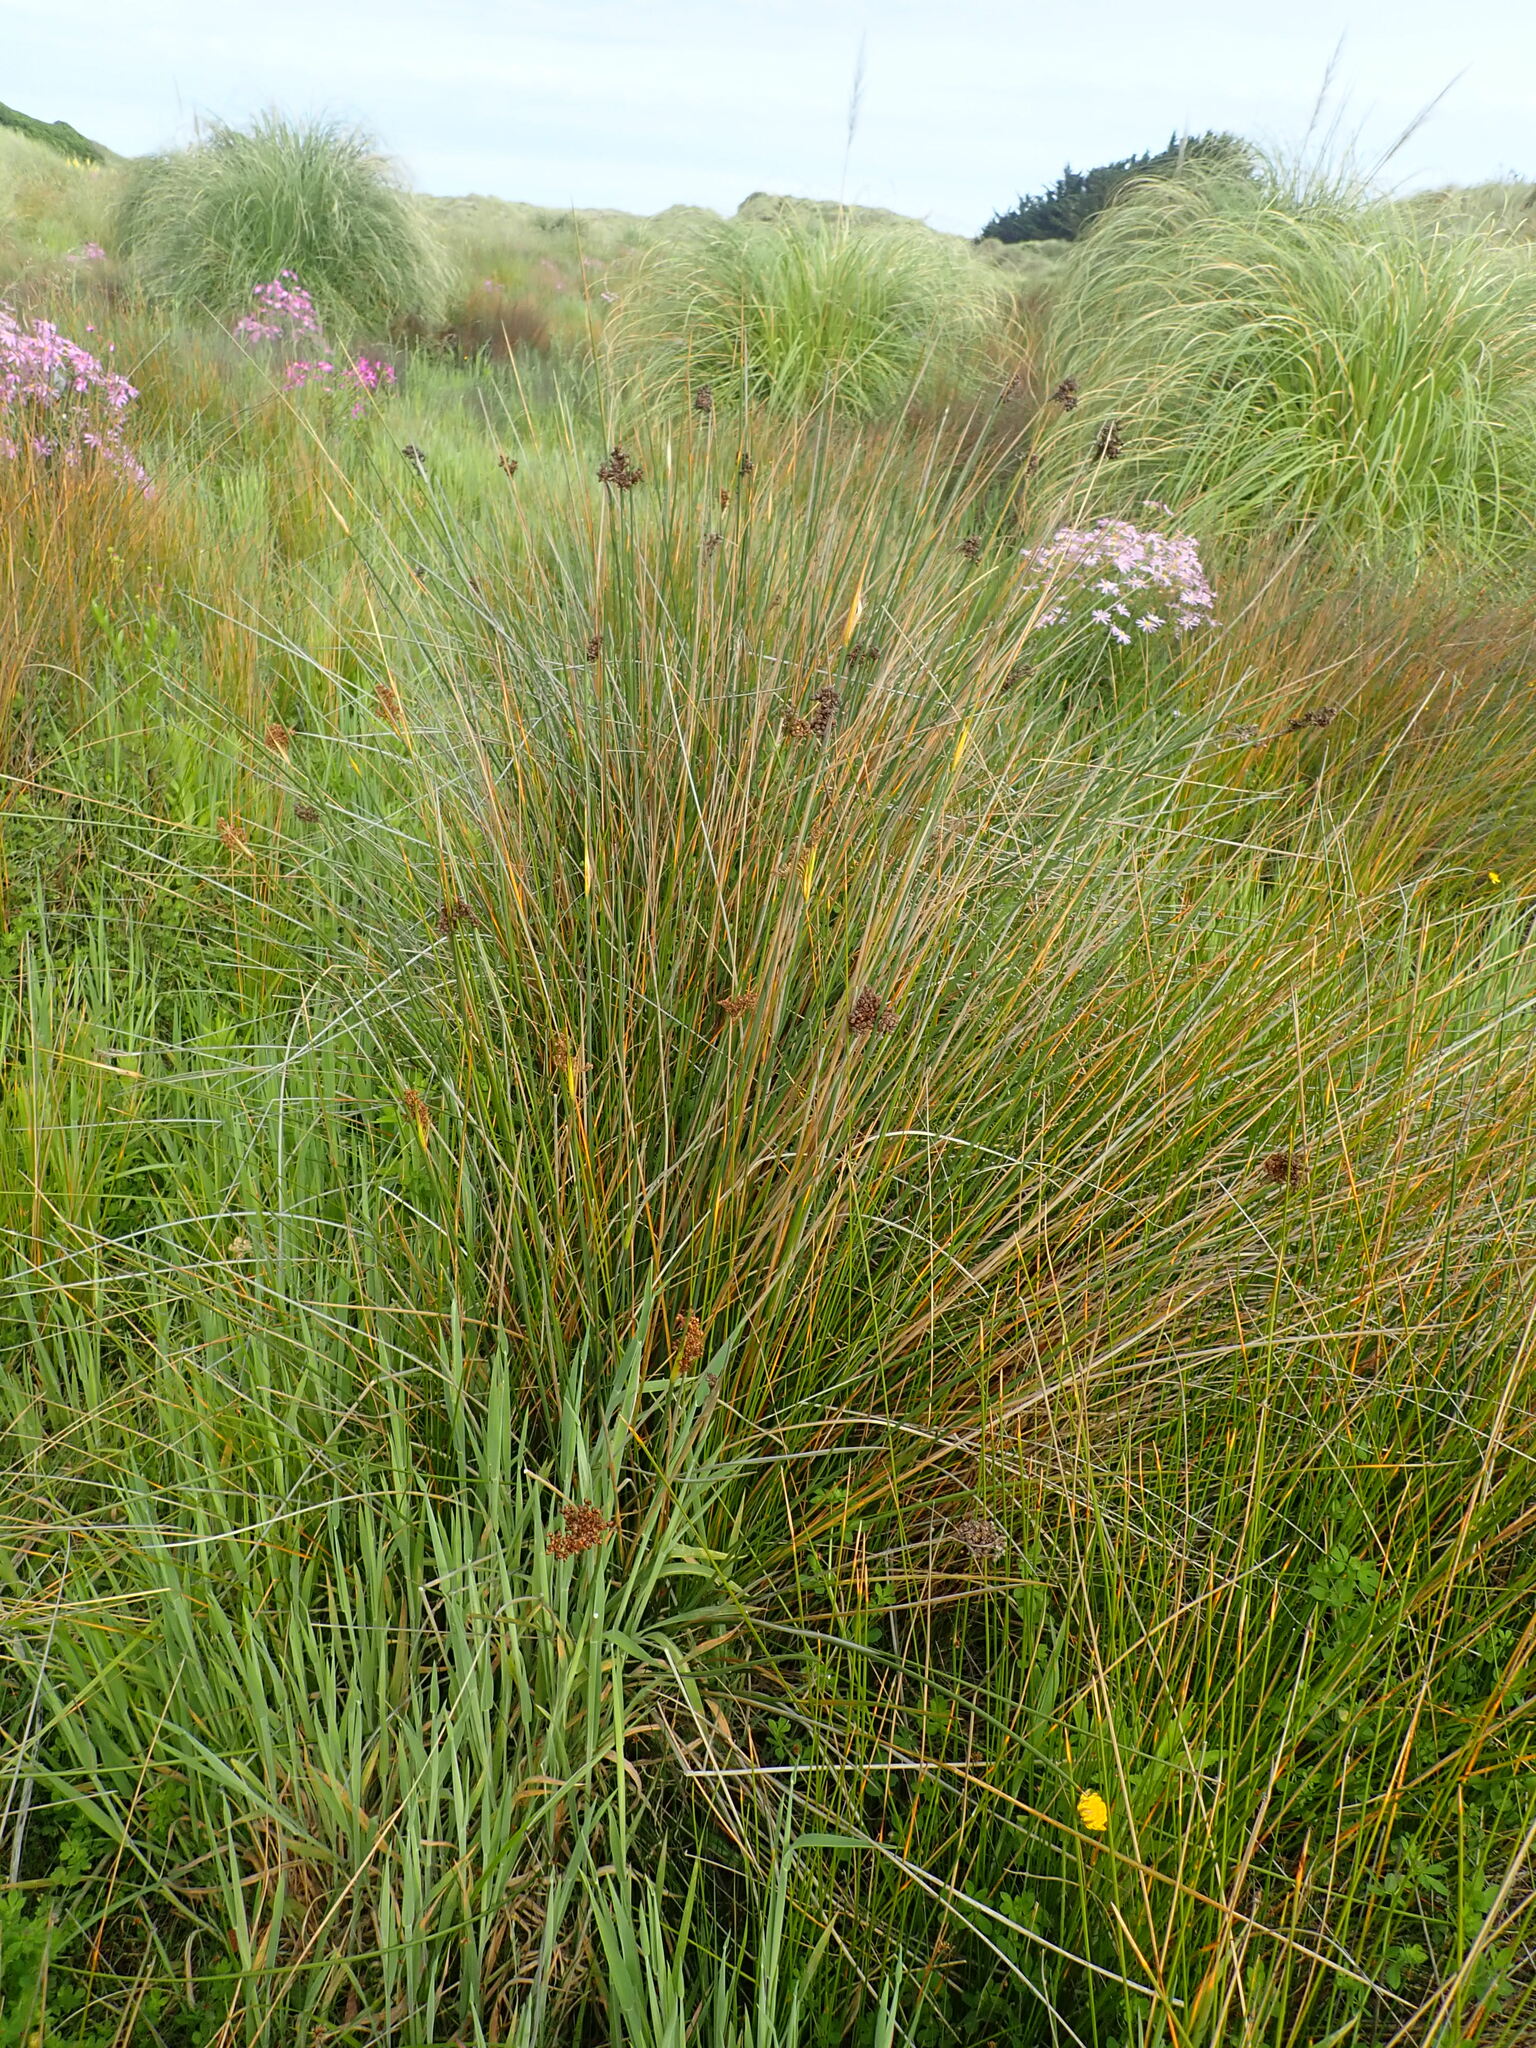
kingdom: Plantae
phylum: Tracheophyta
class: Liliopsida
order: Poales
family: Juncaceae
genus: Juncus
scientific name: Juncus acutus
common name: Sharp rush
